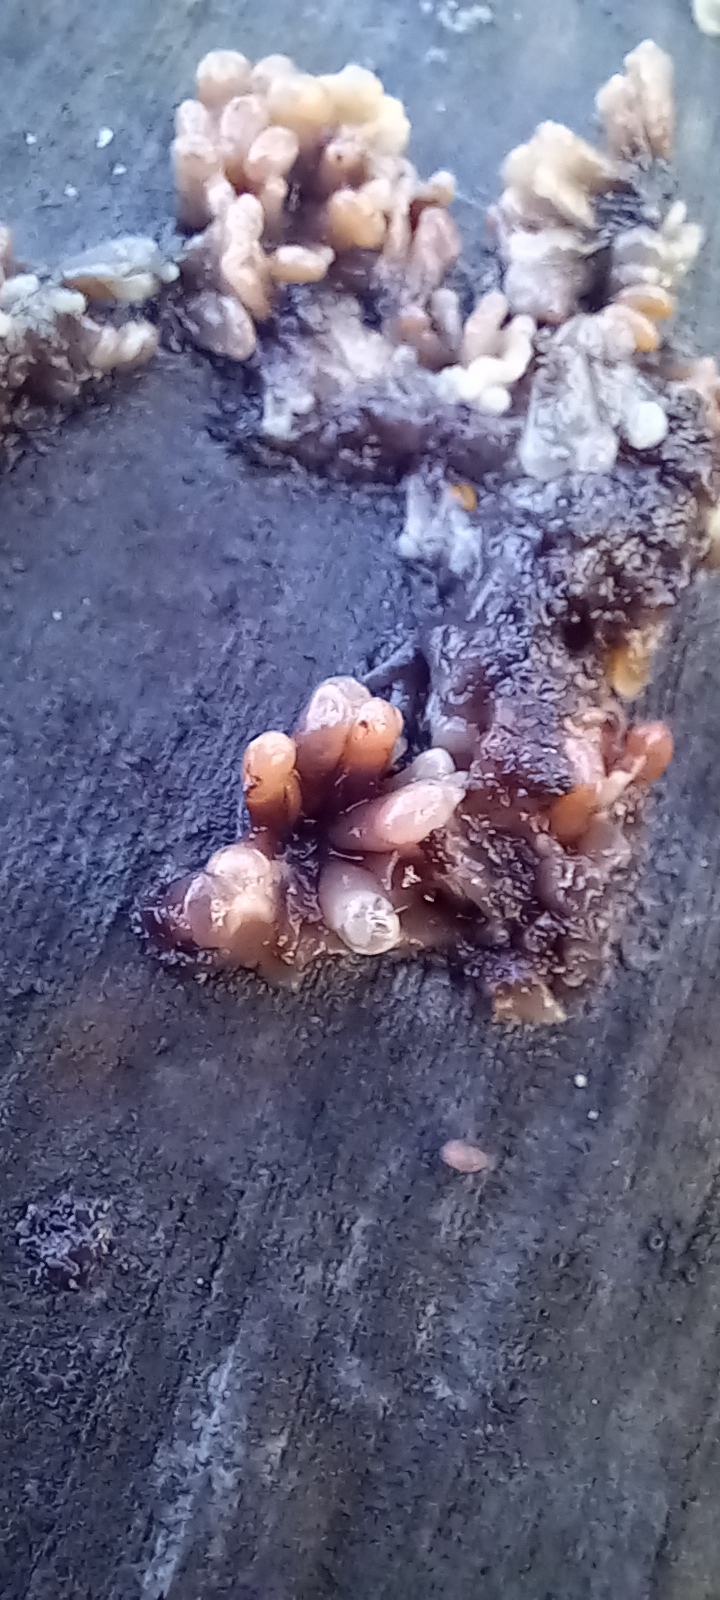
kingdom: Fungi
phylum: Ascomycota
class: Leotiomycetes
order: Helotiales
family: Gelatinodiscaceae
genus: Ascocoryne
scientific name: Ascocoryne sarcoides
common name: Purple jellydisc
